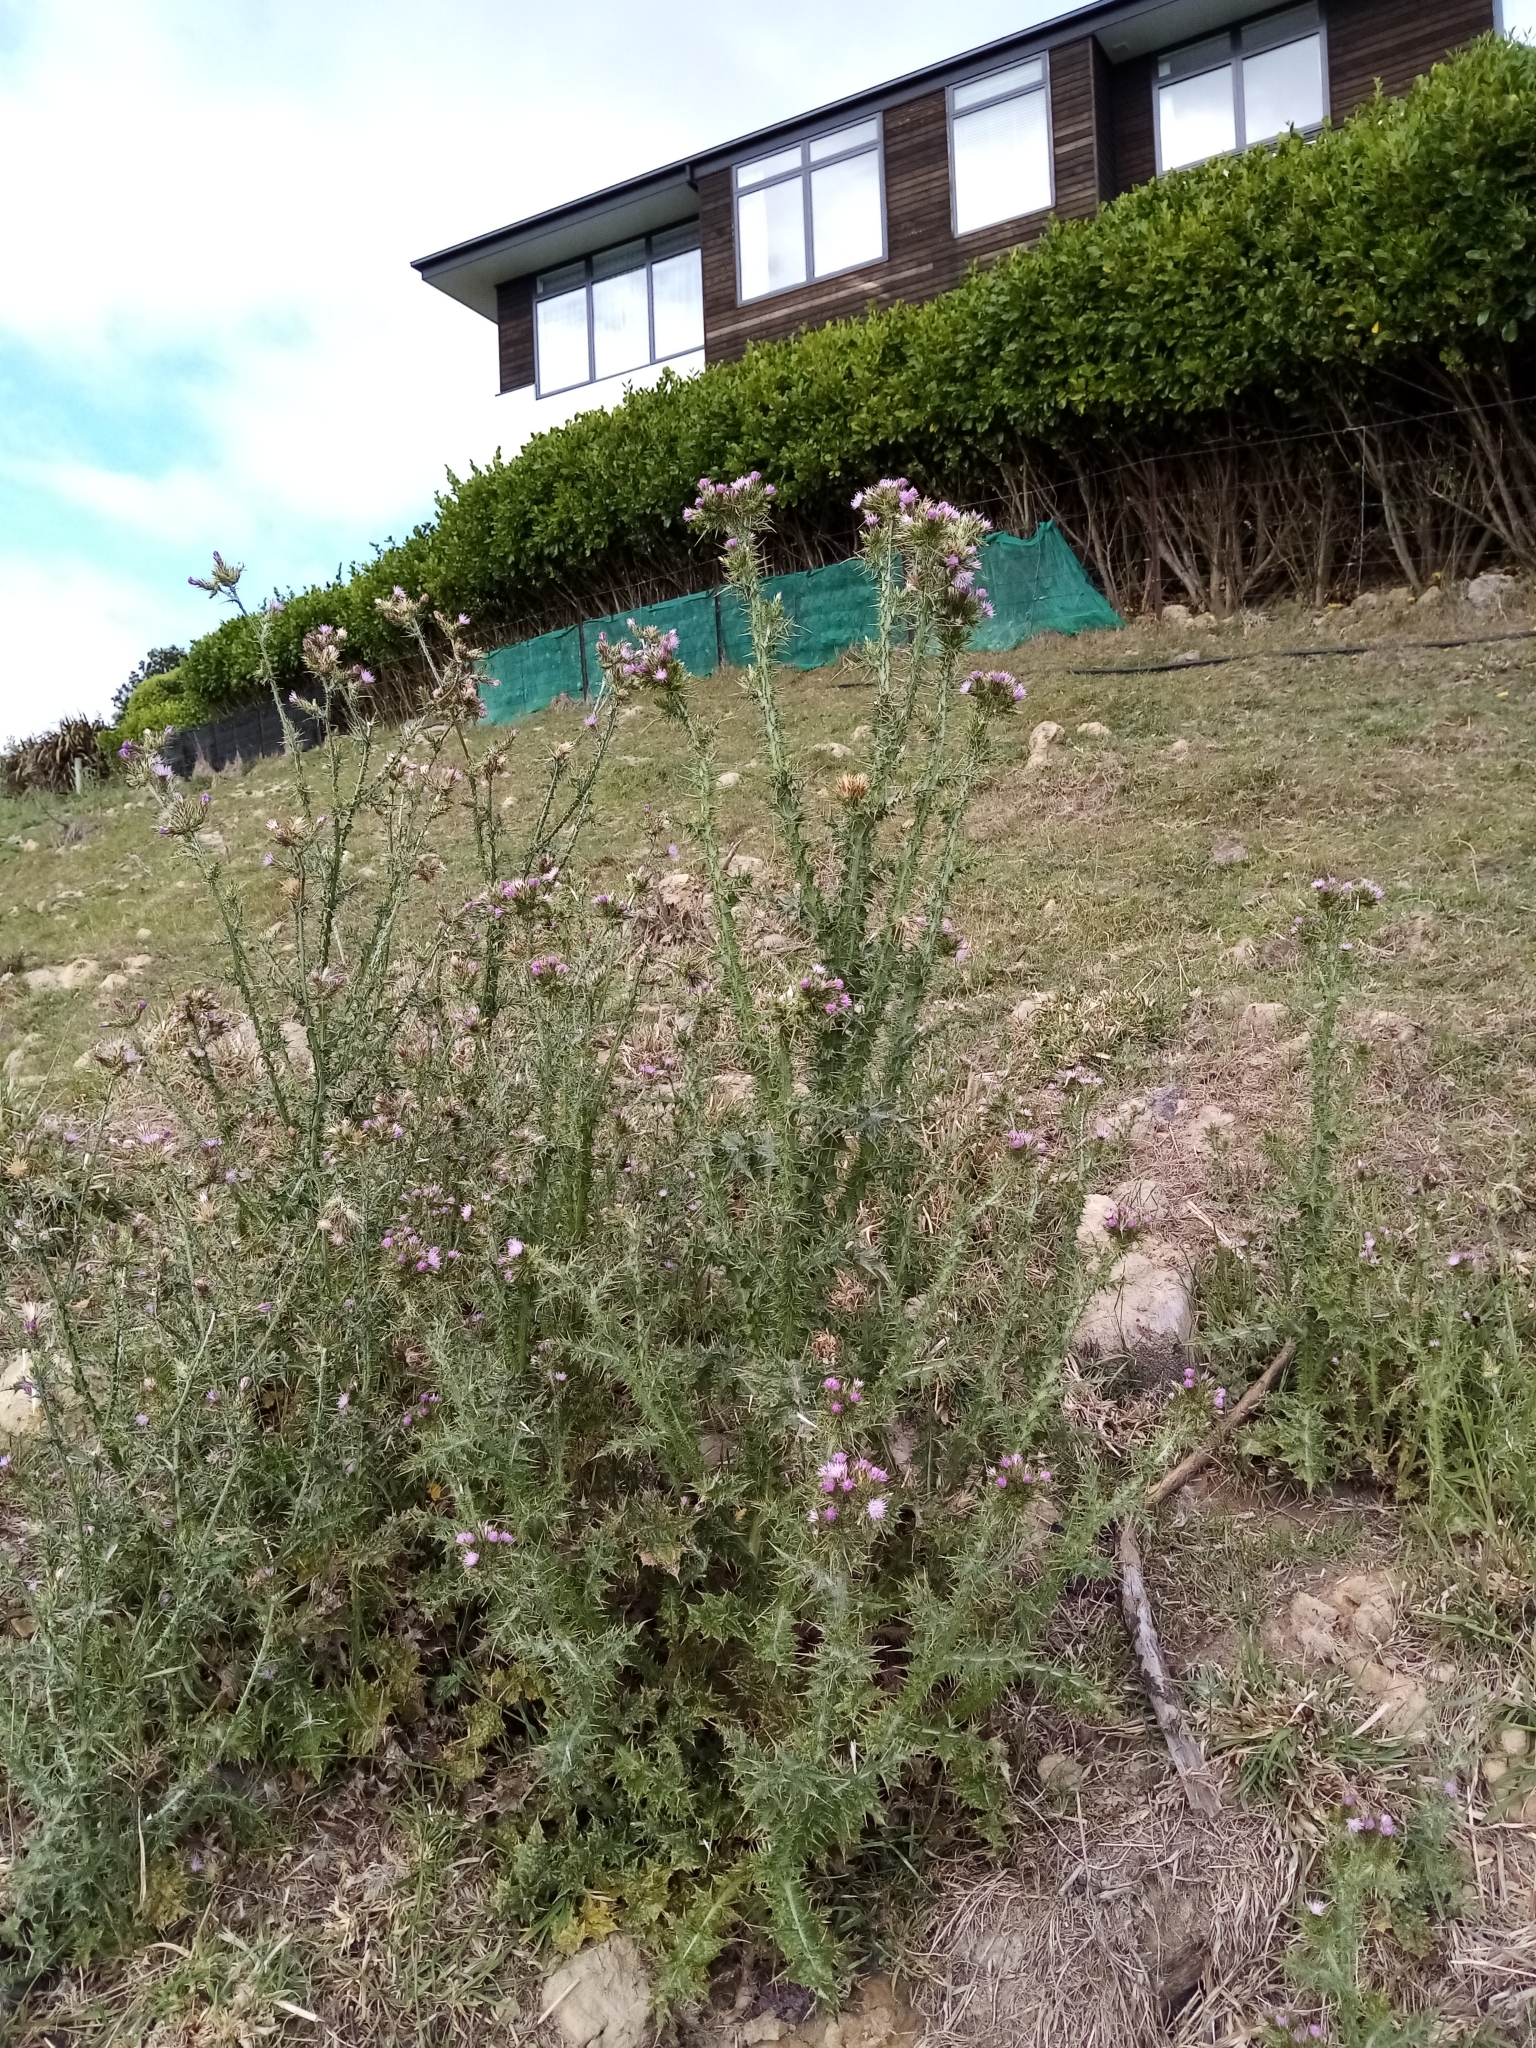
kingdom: Plantae
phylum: Tracheophyta
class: Magnoliopsida
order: Asterales
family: Asteraceae
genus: Carduus
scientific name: Carduus tenuiflorus
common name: Slender thistle
